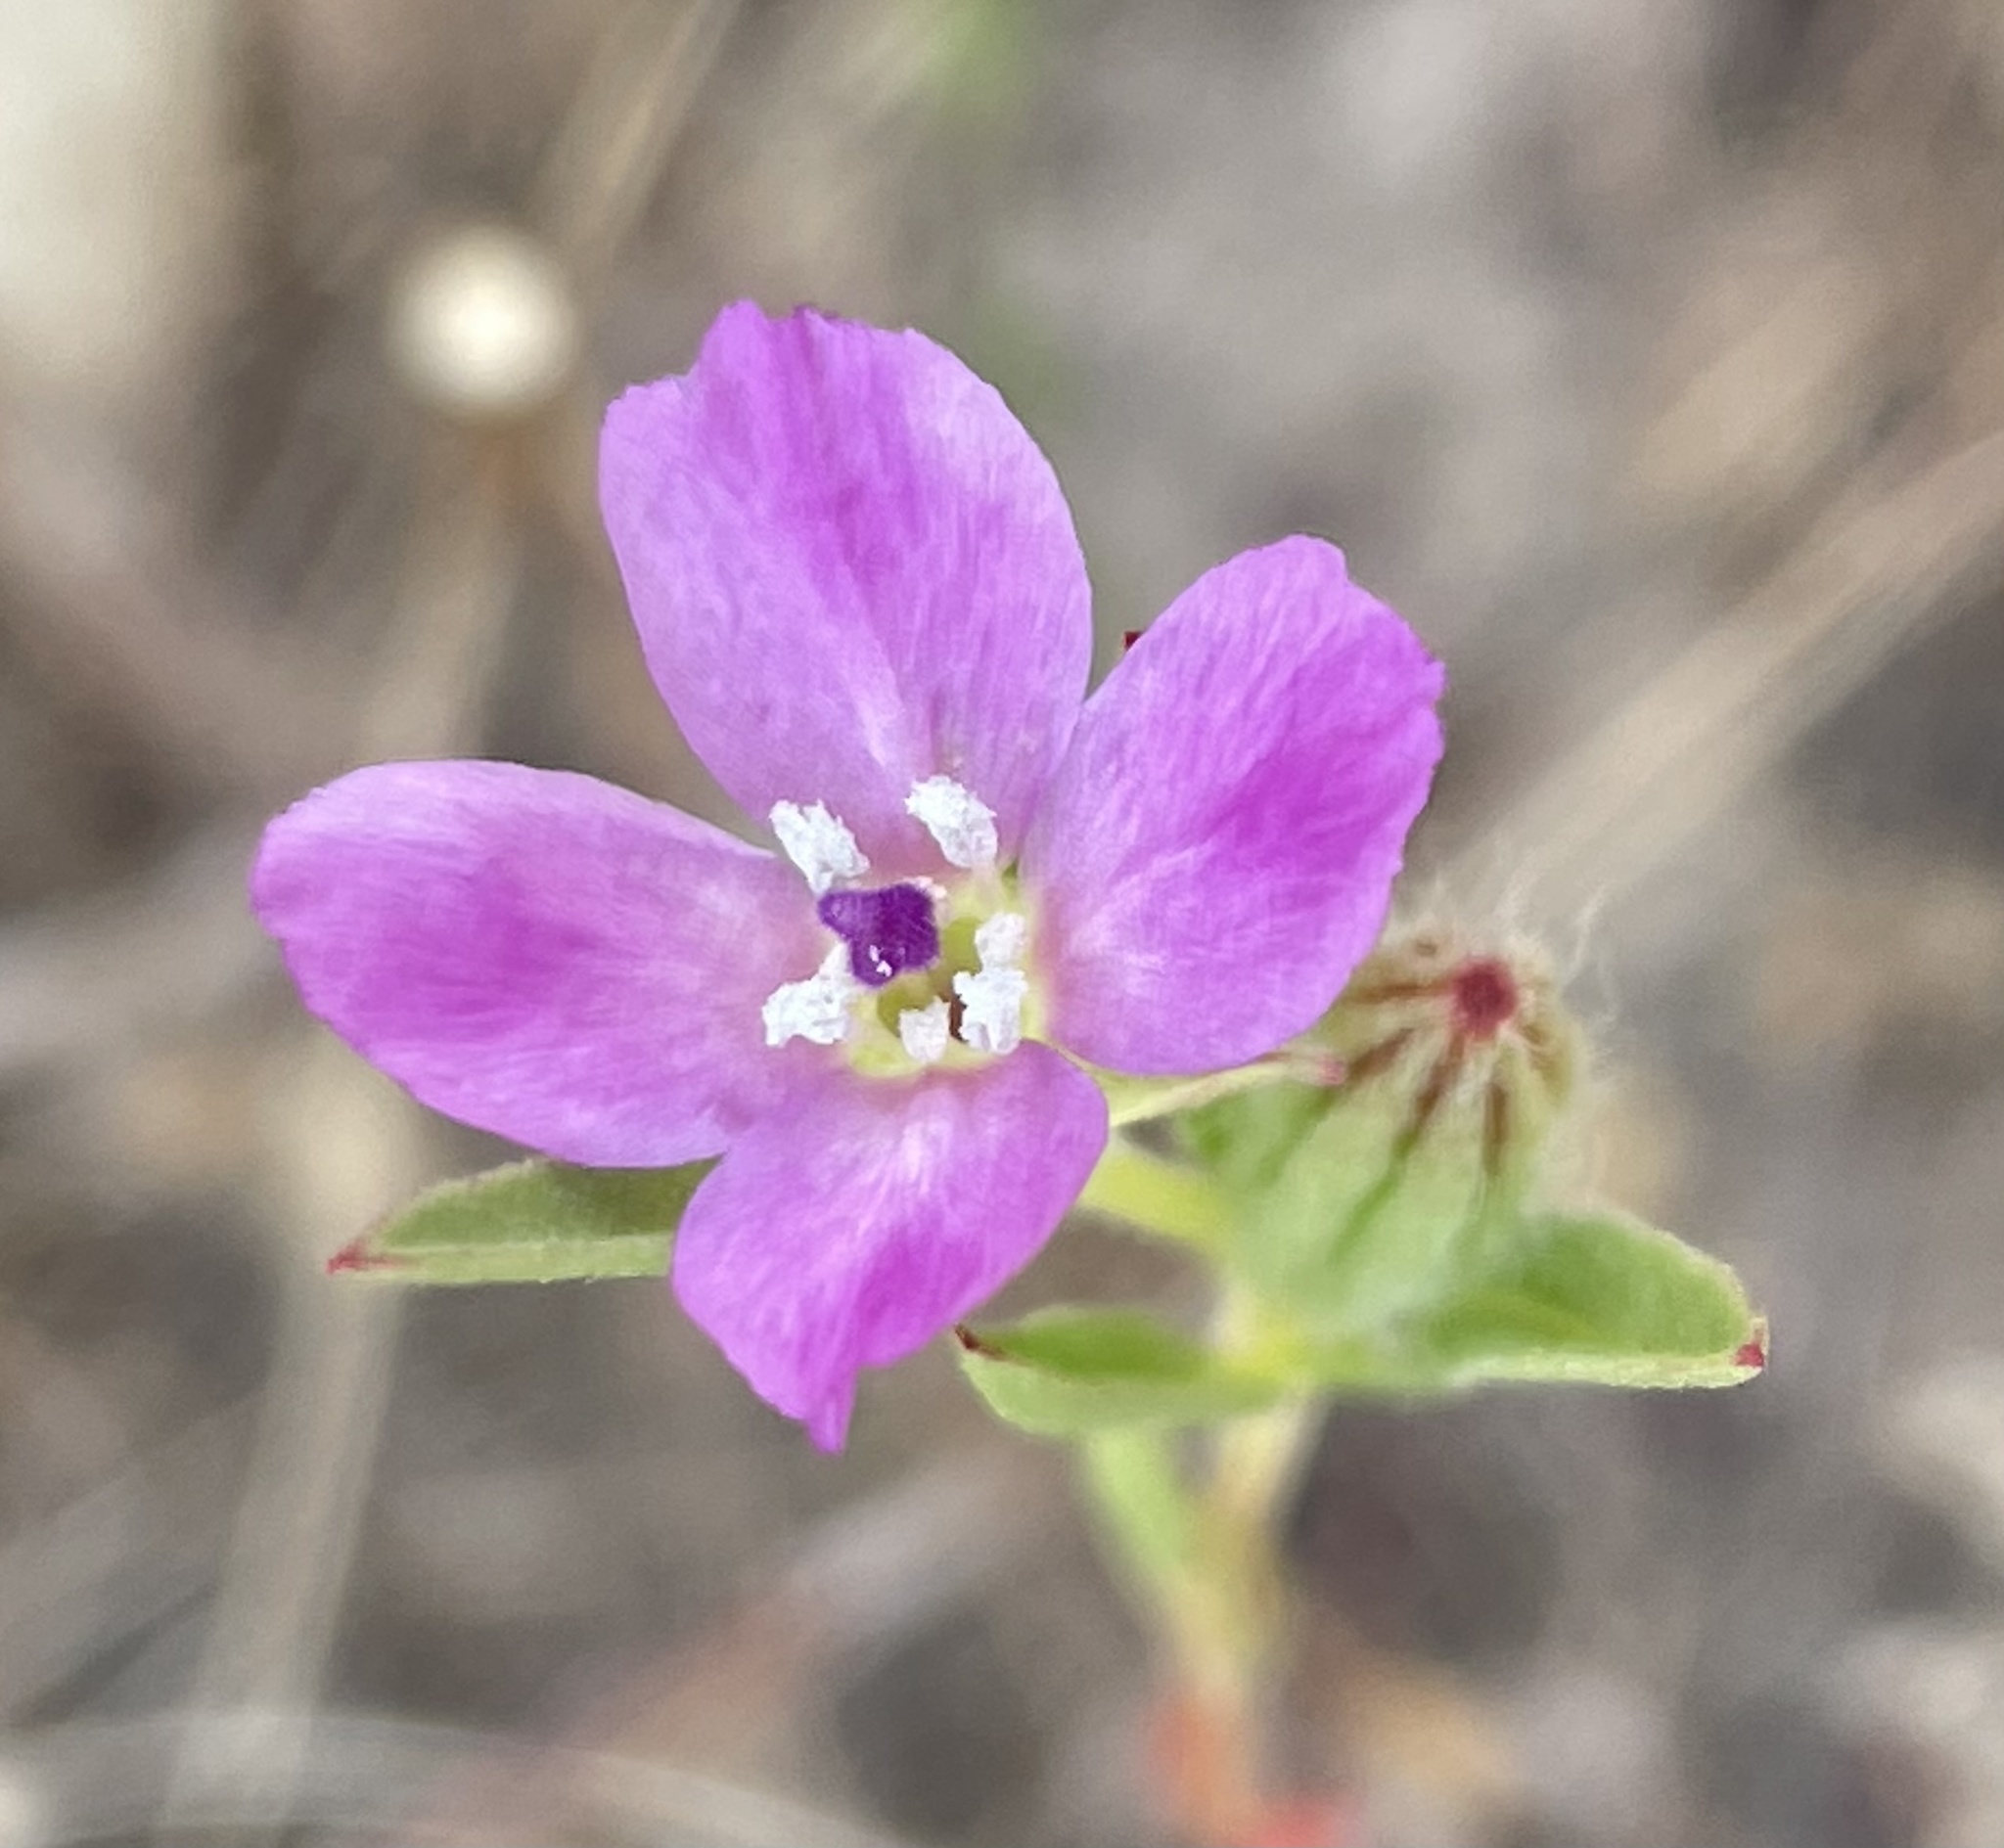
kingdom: Plantae
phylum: Tracheophyta
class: Magnoliopsida
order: Myrtales
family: Onagraceae
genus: Clarkia
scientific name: Clarkia purpurea
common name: Purple clarkia
